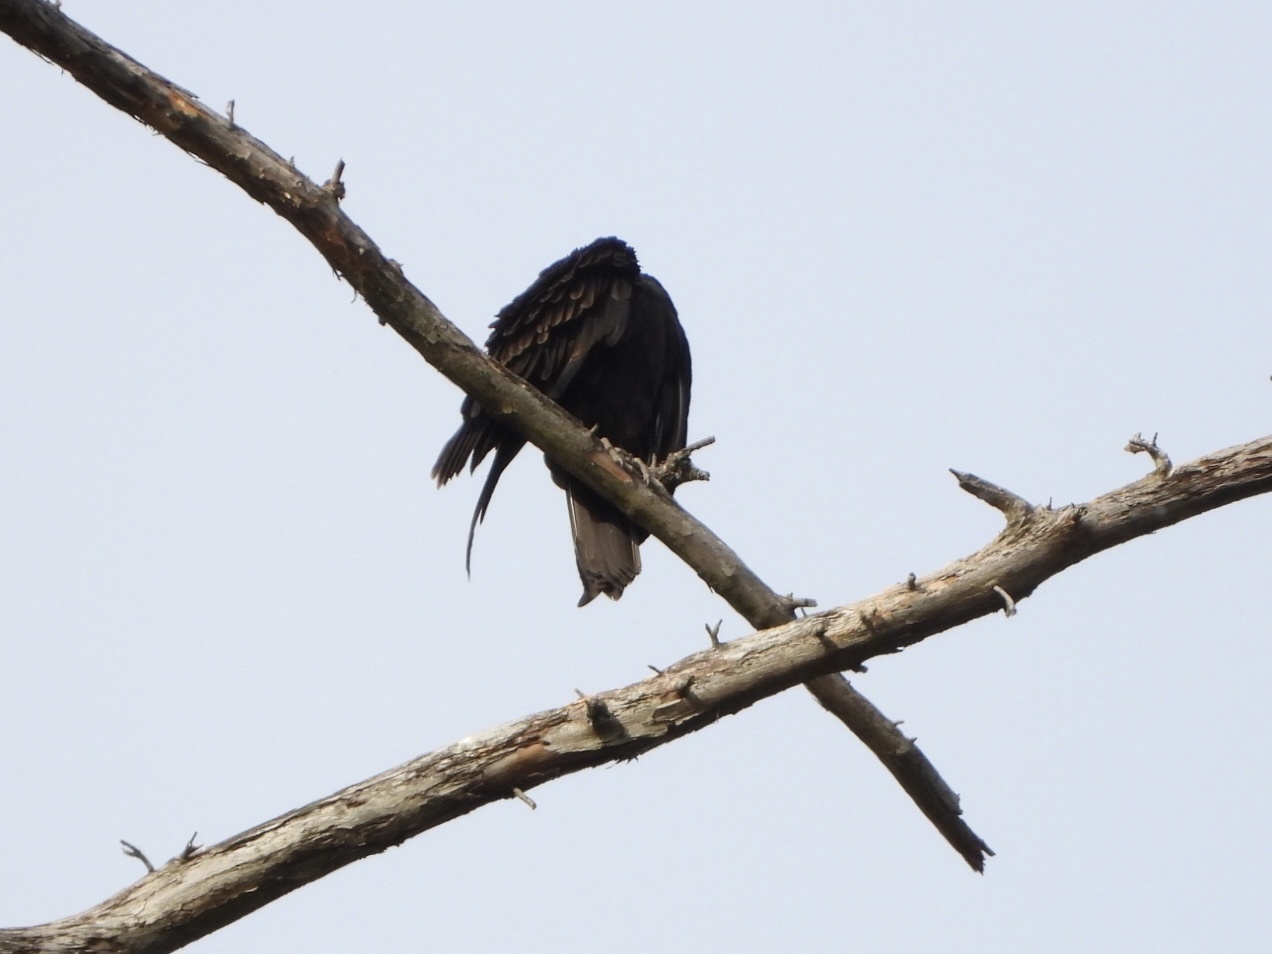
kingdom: Animalia
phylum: Chordata
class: Aves
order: Accipitriformes
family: Cathartidae
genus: Cathartes
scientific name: Cathartes aura
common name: Turkey vulture
